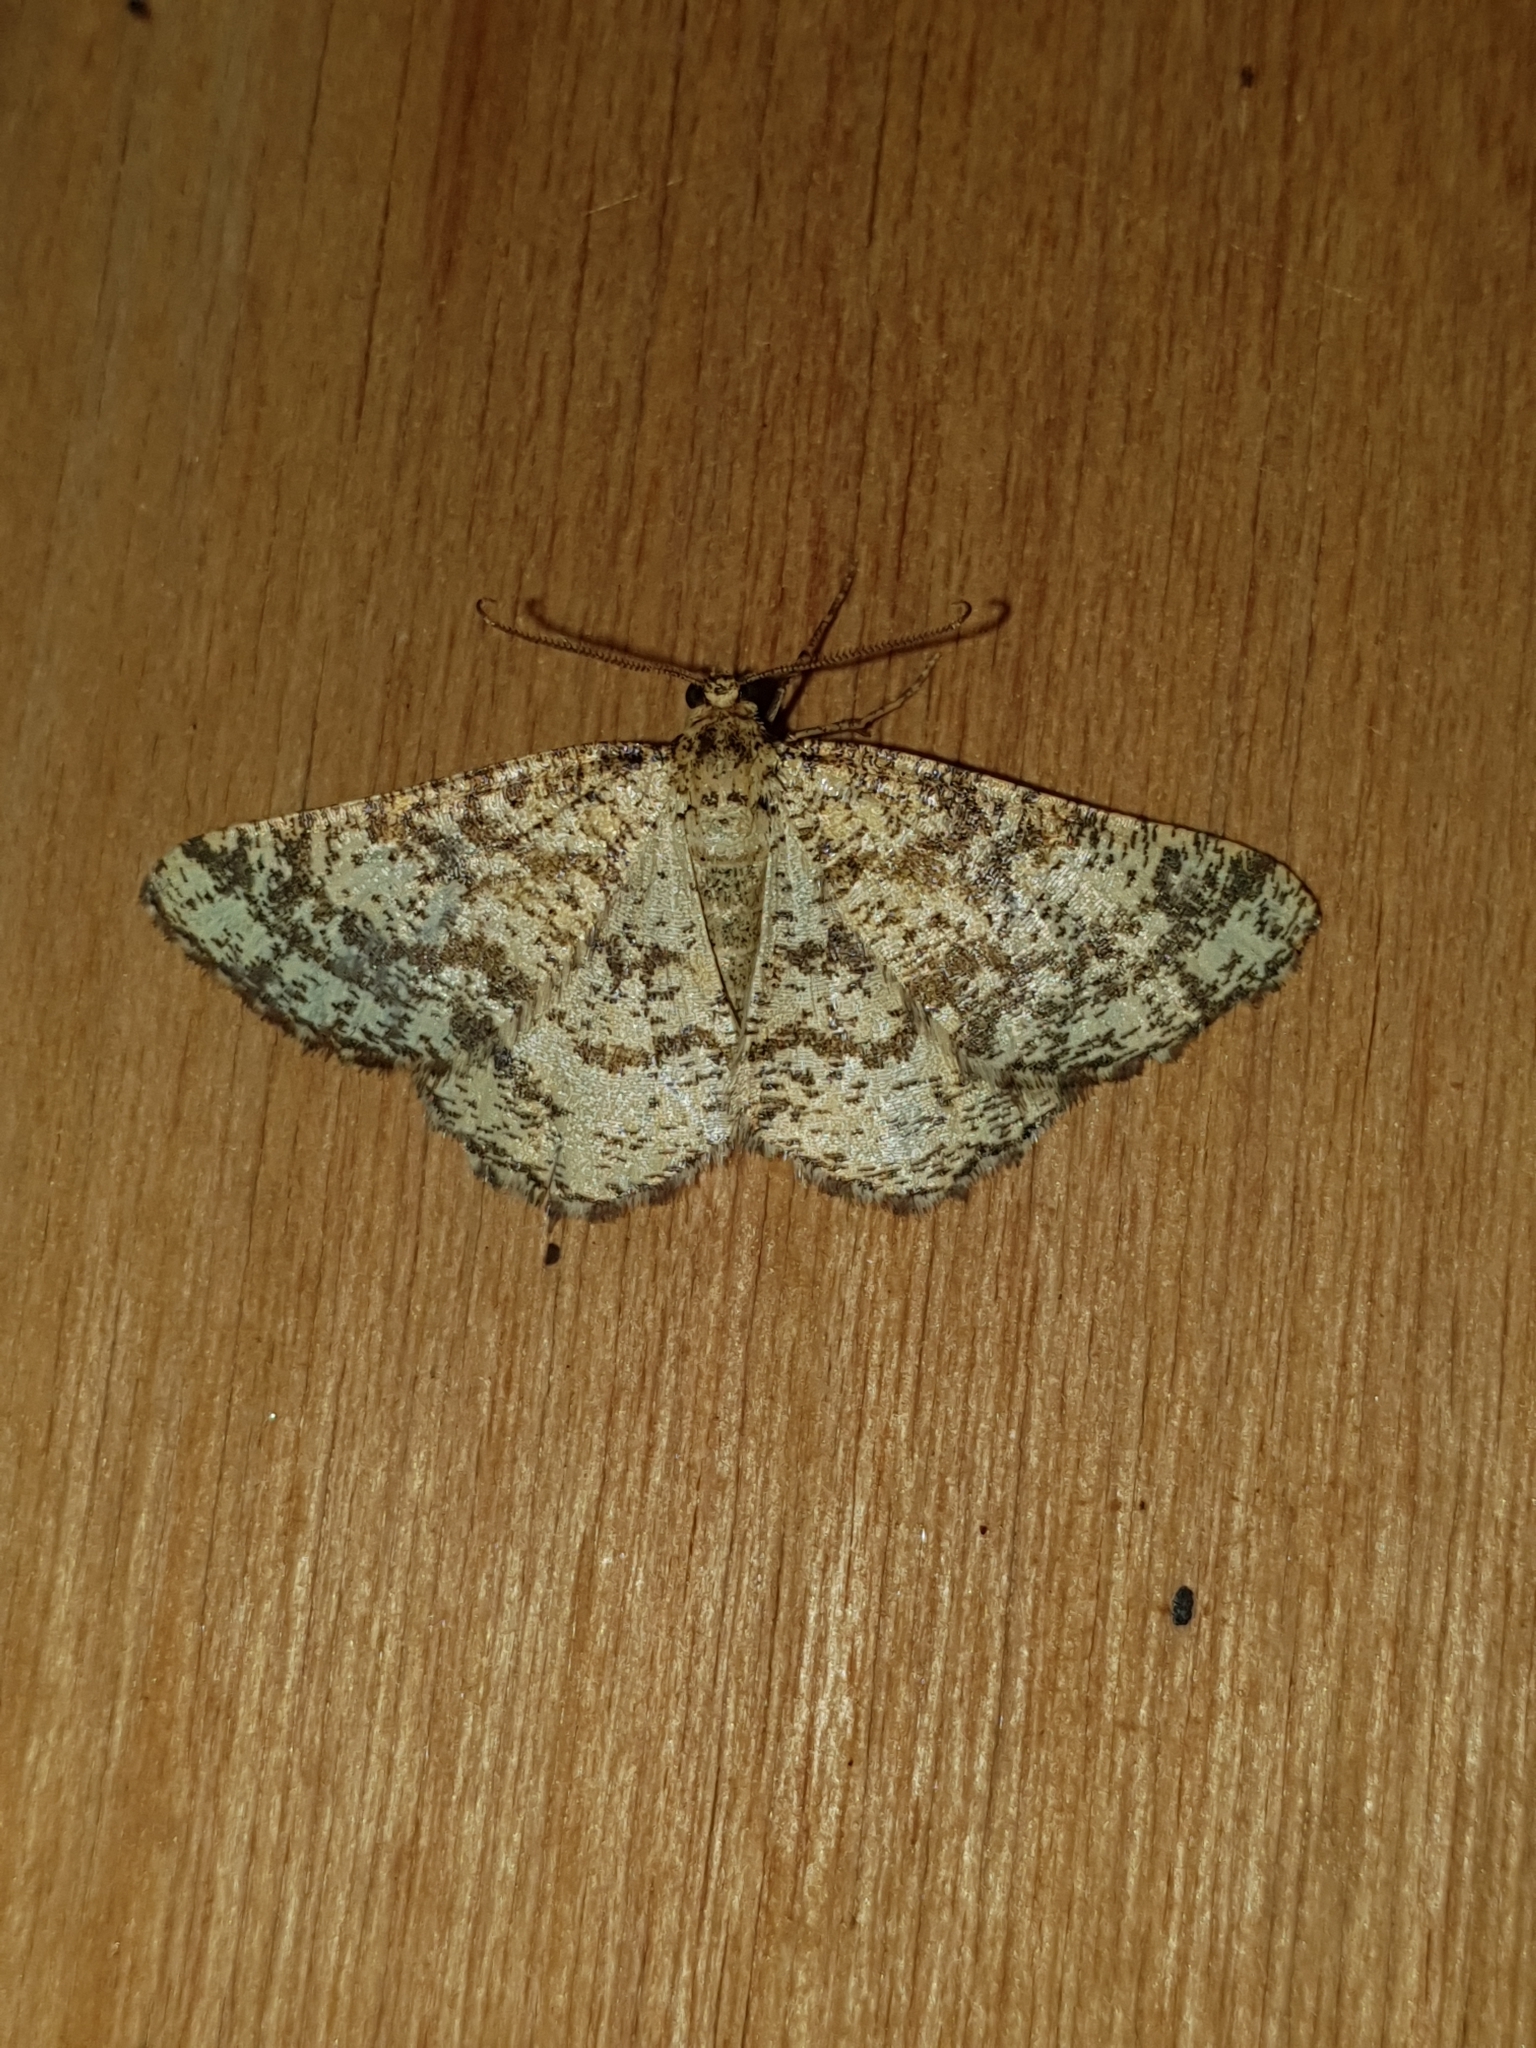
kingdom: Animalia
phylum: Arthropoda
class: Insecta
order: Lepidoptera
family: Geometridae
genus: Heliomata
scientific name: Heliomata glarearia
